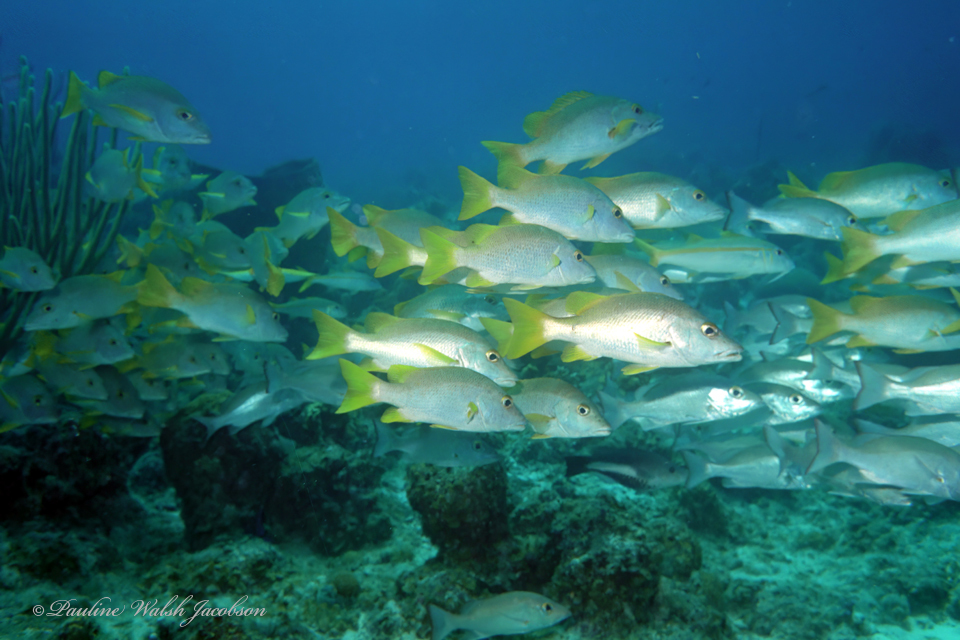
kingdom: Animalia
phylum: Chordata
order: Perciformes
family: Lutjanidae
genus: Lutjanus
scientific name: Lutjanus apodus
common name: Schoolmaster
